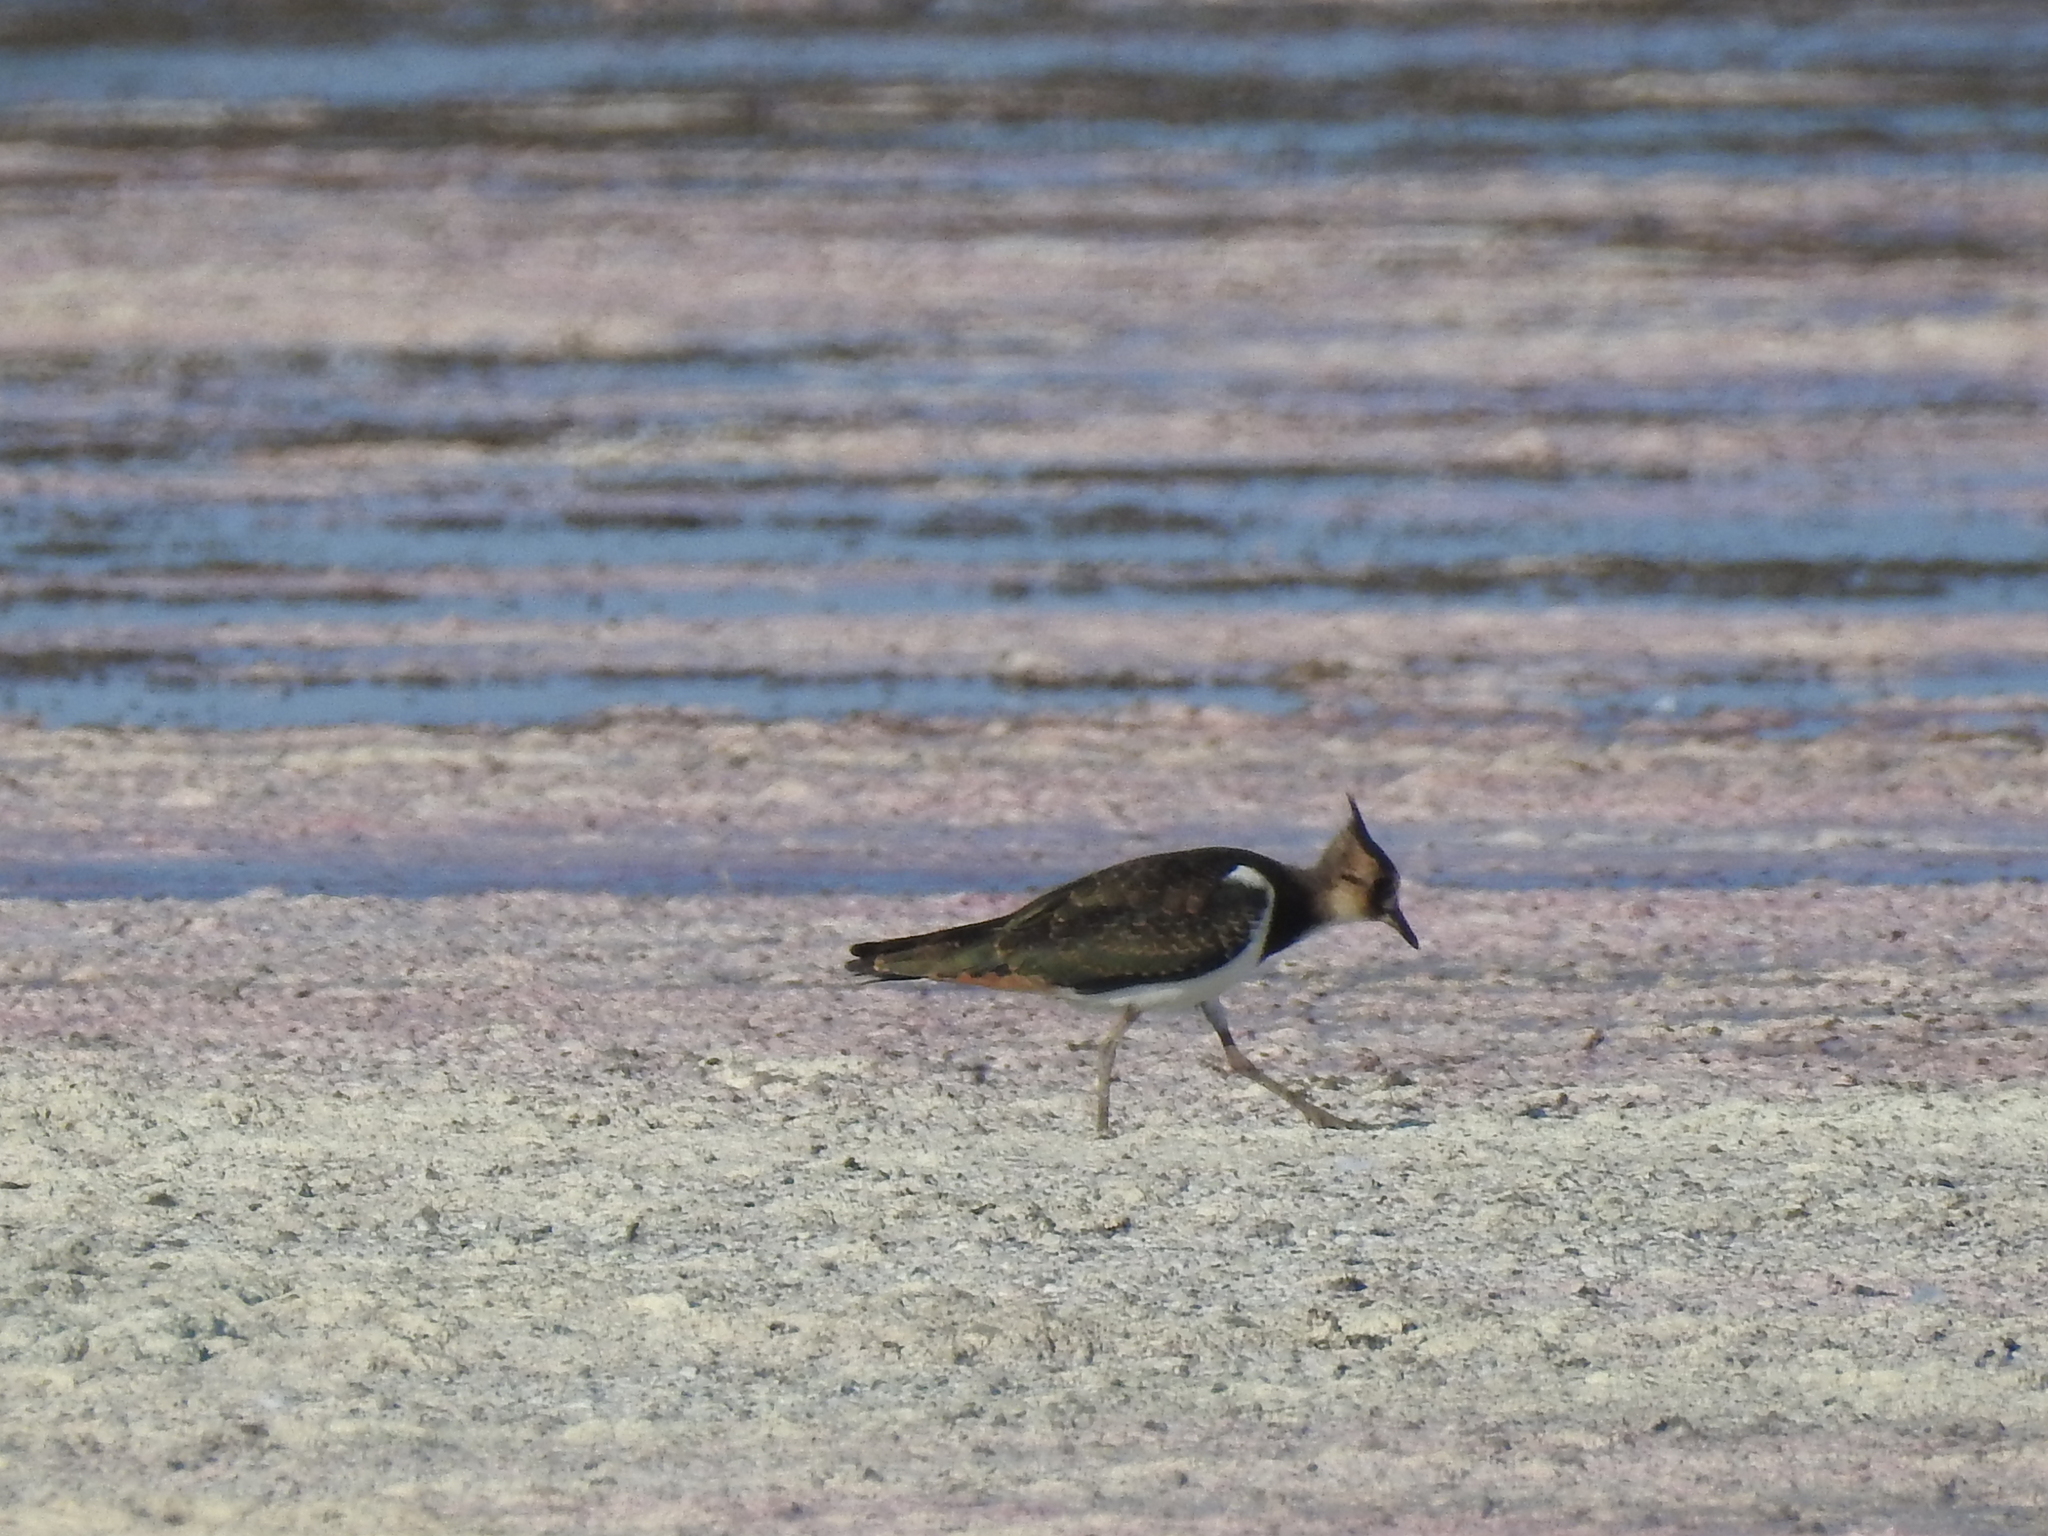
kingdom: Animalia
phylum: Chordata
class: Aves
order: Charadriiformes
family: Charadriidae
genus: Vanellus
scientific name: Vanellus vanellus
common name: Northern lapwing
